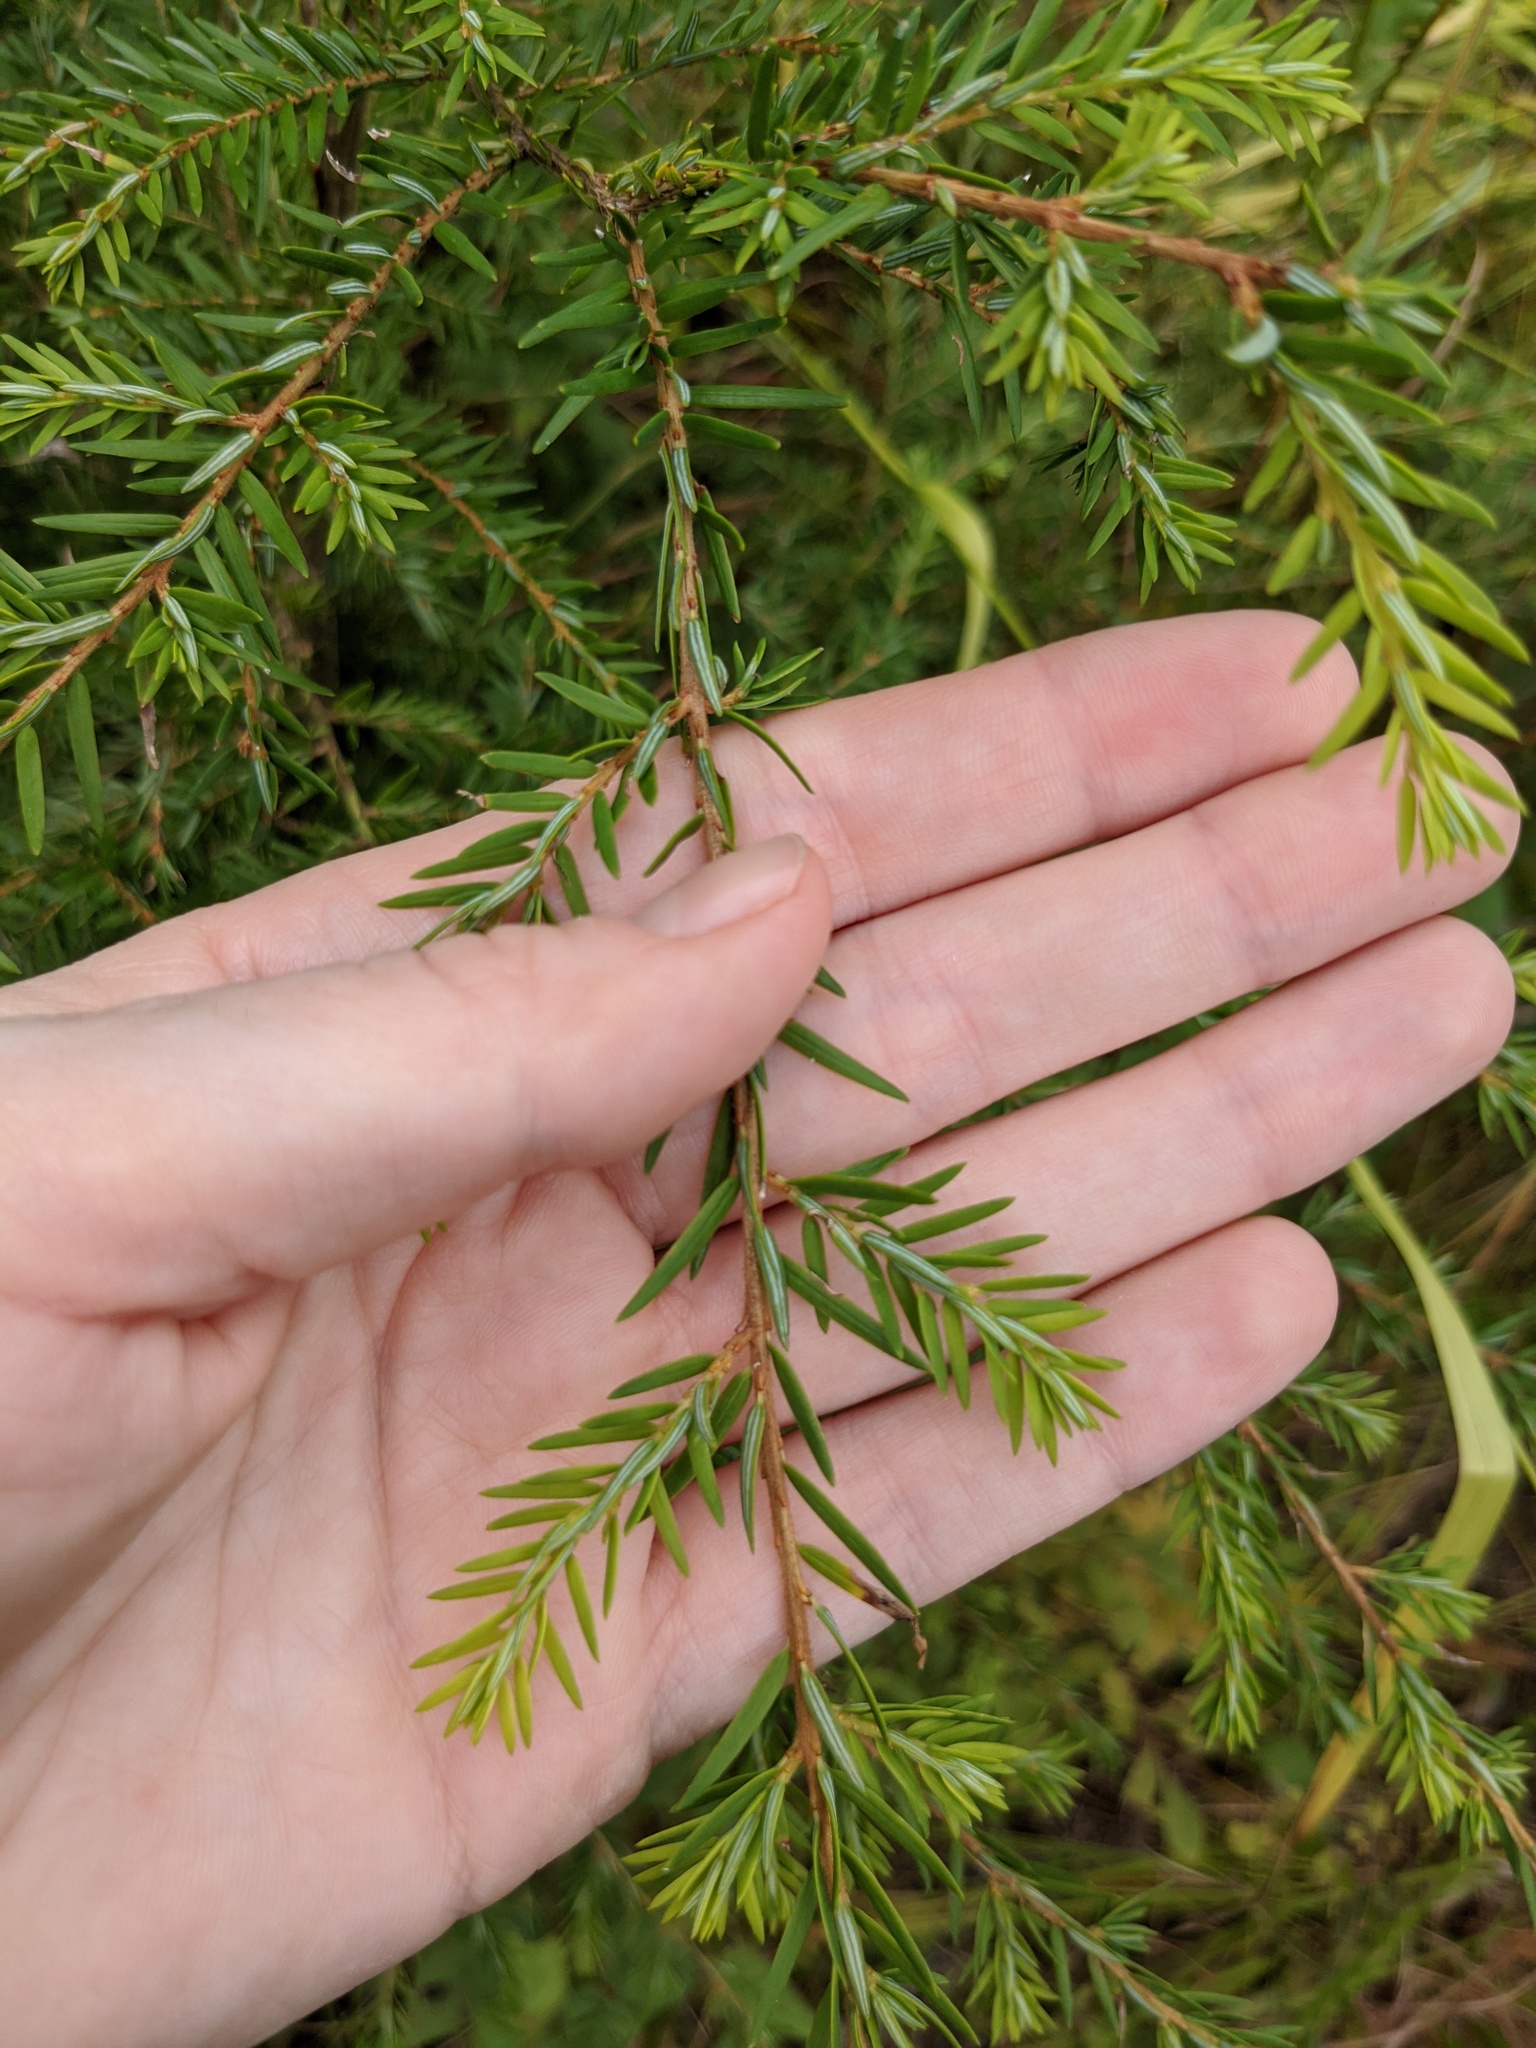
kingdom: Plantae
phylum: Tracheophyta
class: Pinopsida
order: Pinales
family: Pinaceae
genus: Tsuga
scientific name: Tsuga canadensis
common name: Eastern hemlock
